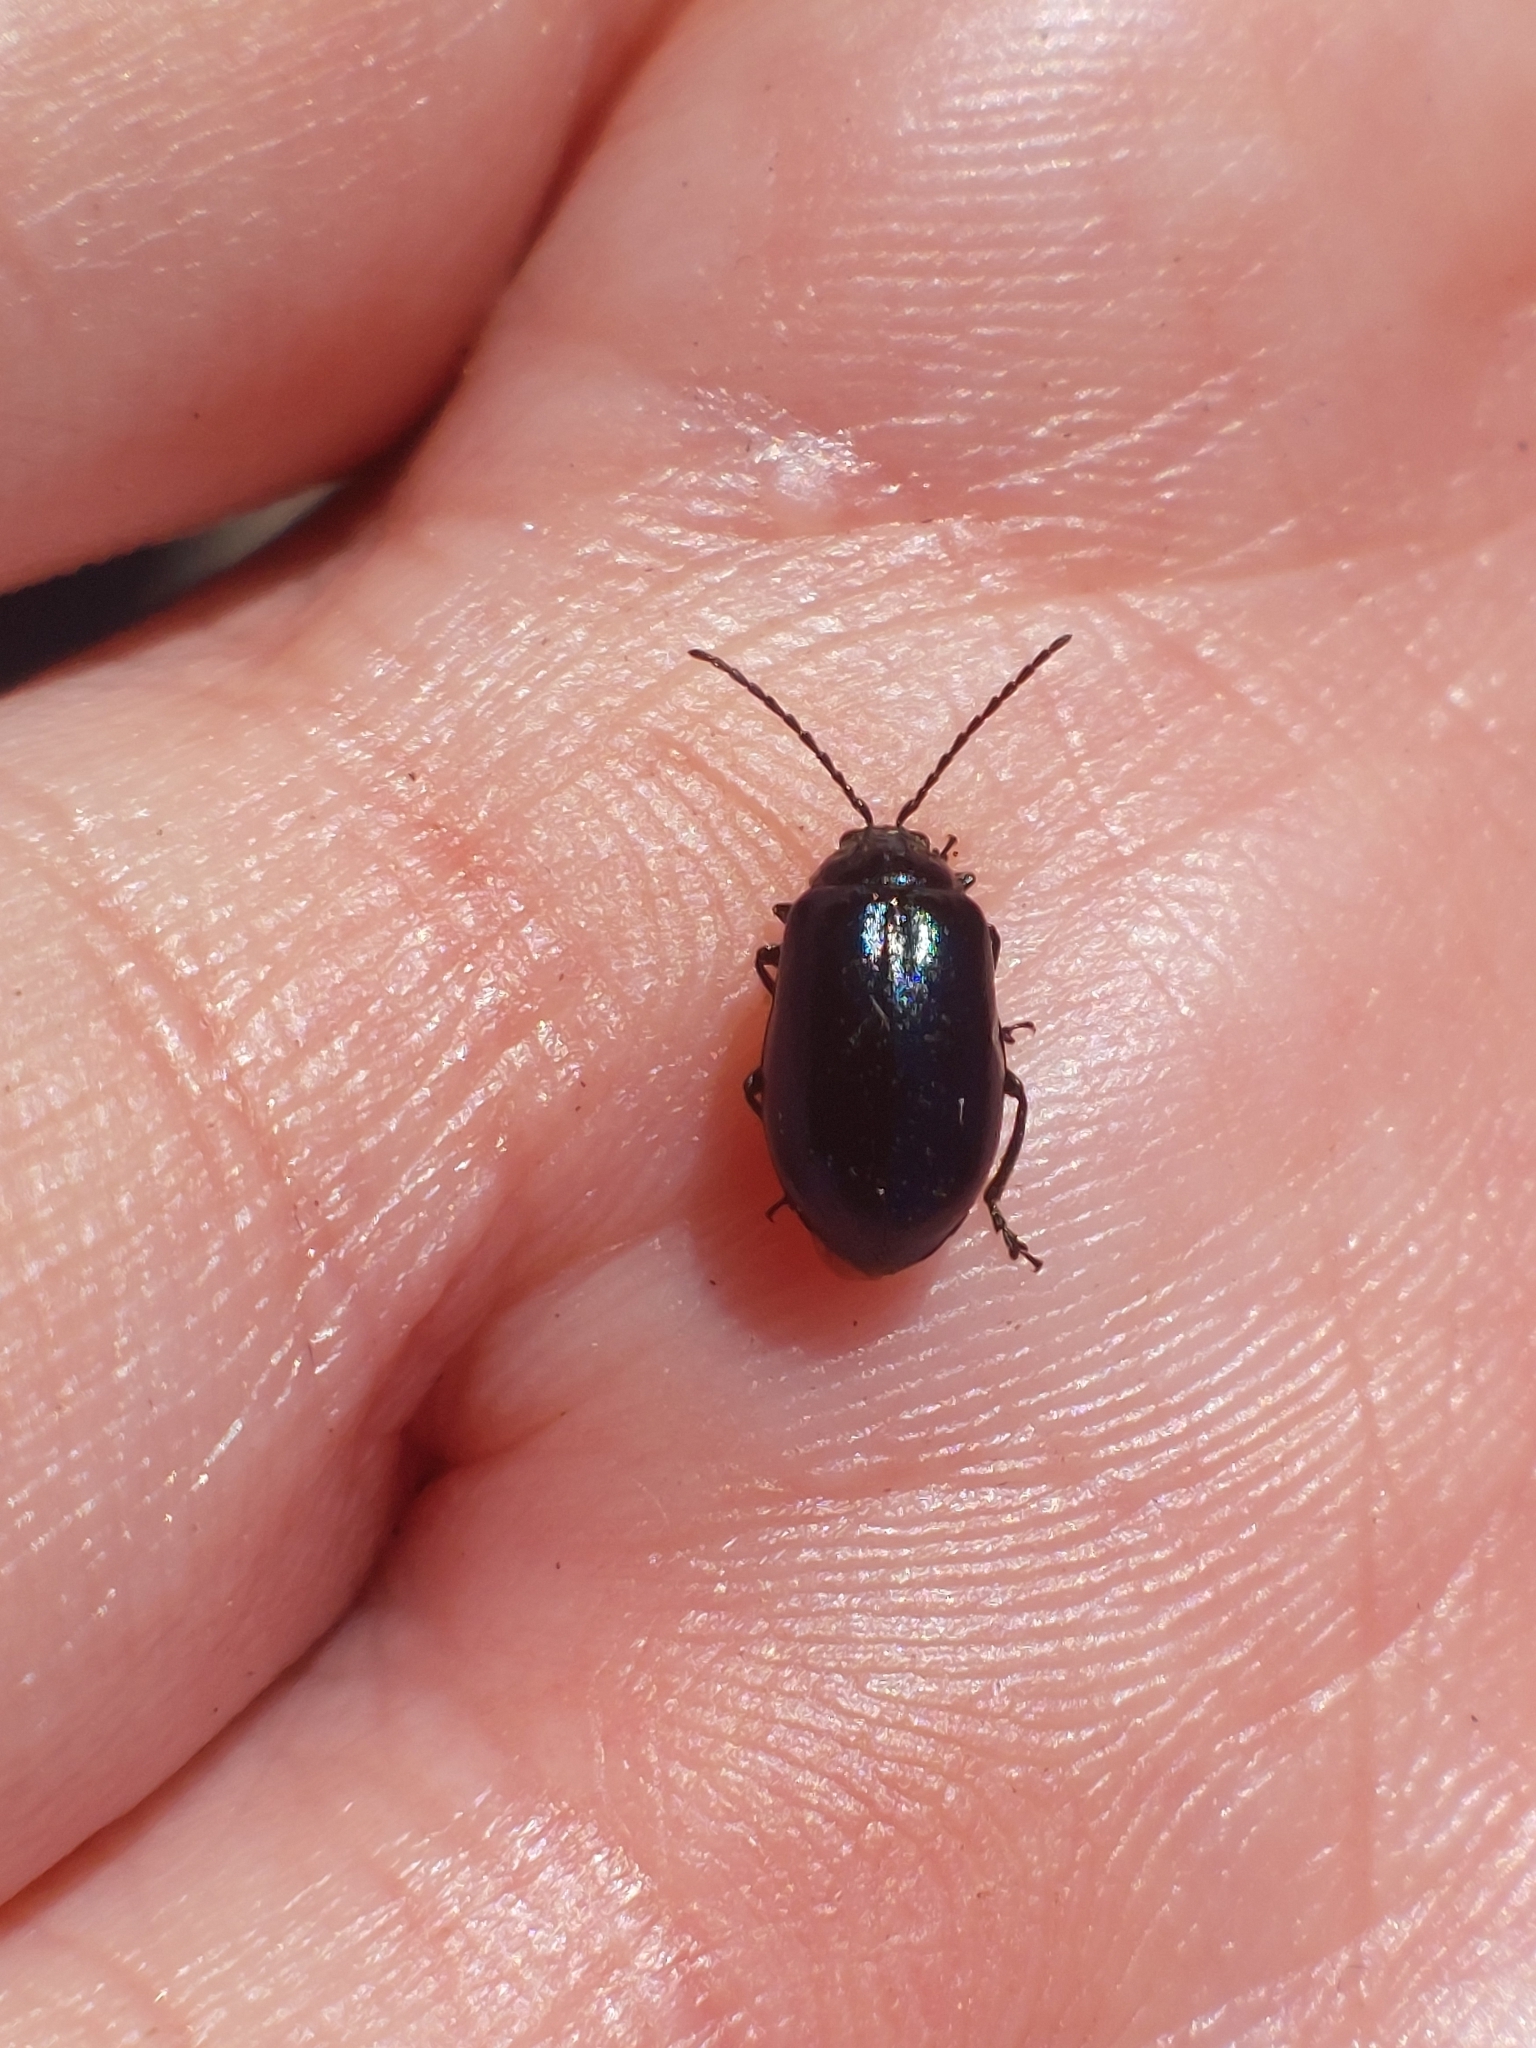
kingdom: Animalia
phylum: Arthropoda
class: Insecta
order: Coleoptera
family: Chrysomelidae
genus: Agelastica
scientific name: Agelastica alni
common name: Alder leaf beetle
